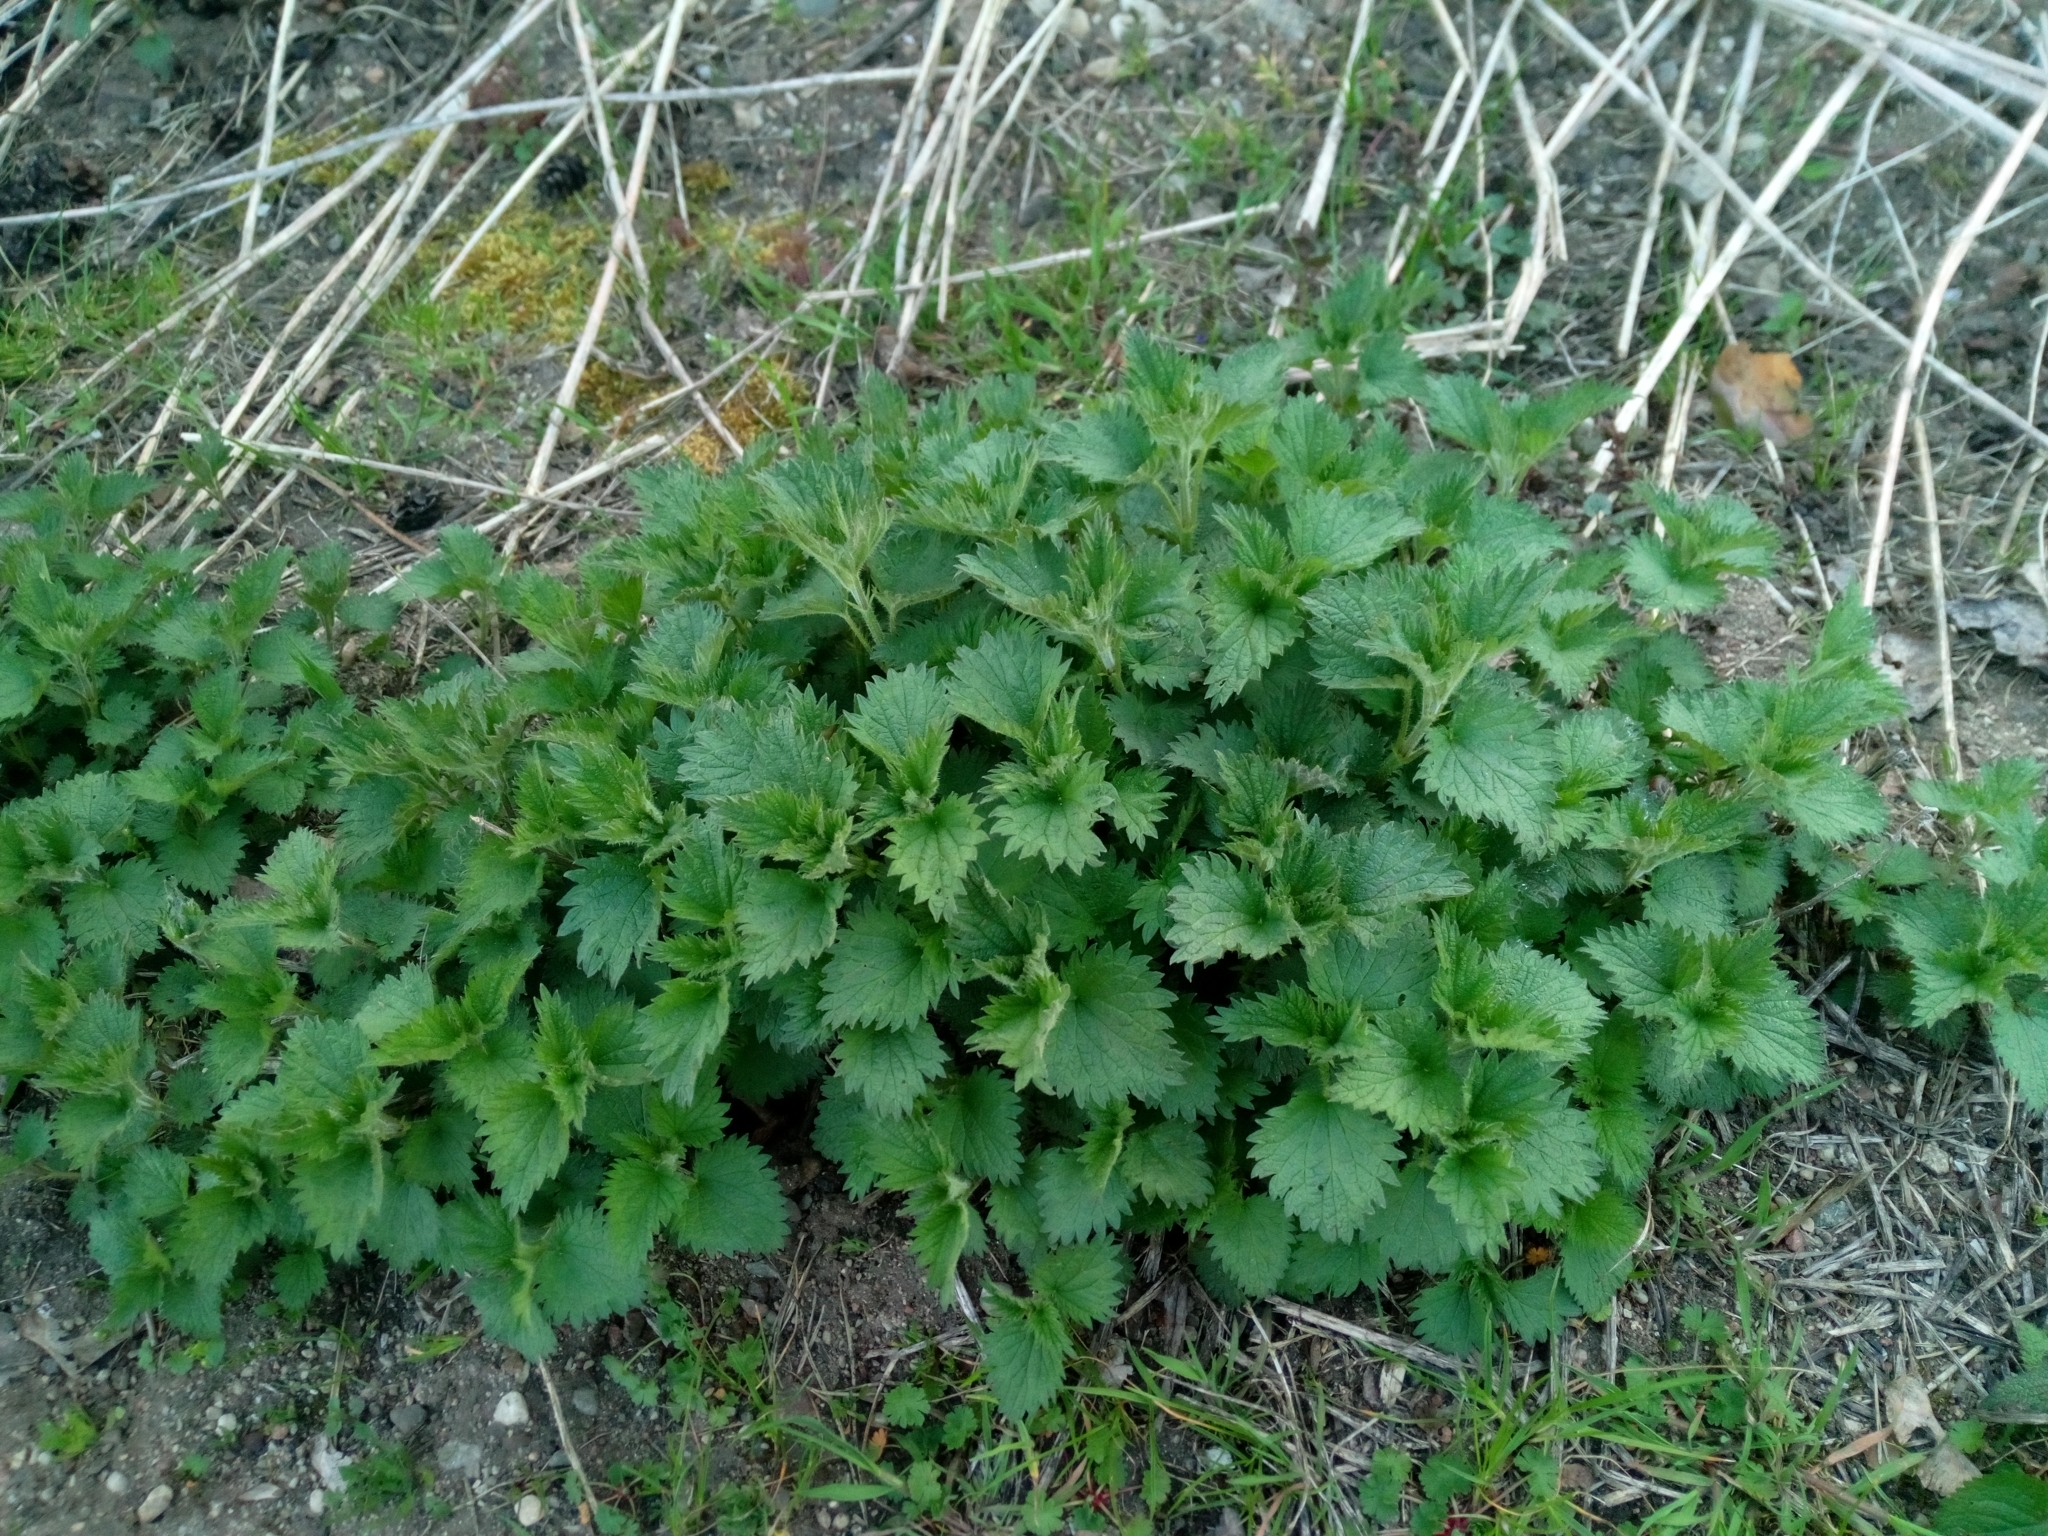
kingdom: Plantae
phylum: Tracheophyta
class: Magnoliopsida
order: Rosales
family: Urticaceae
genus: Urtica
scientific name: Urtica dioica
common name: Common nettle
